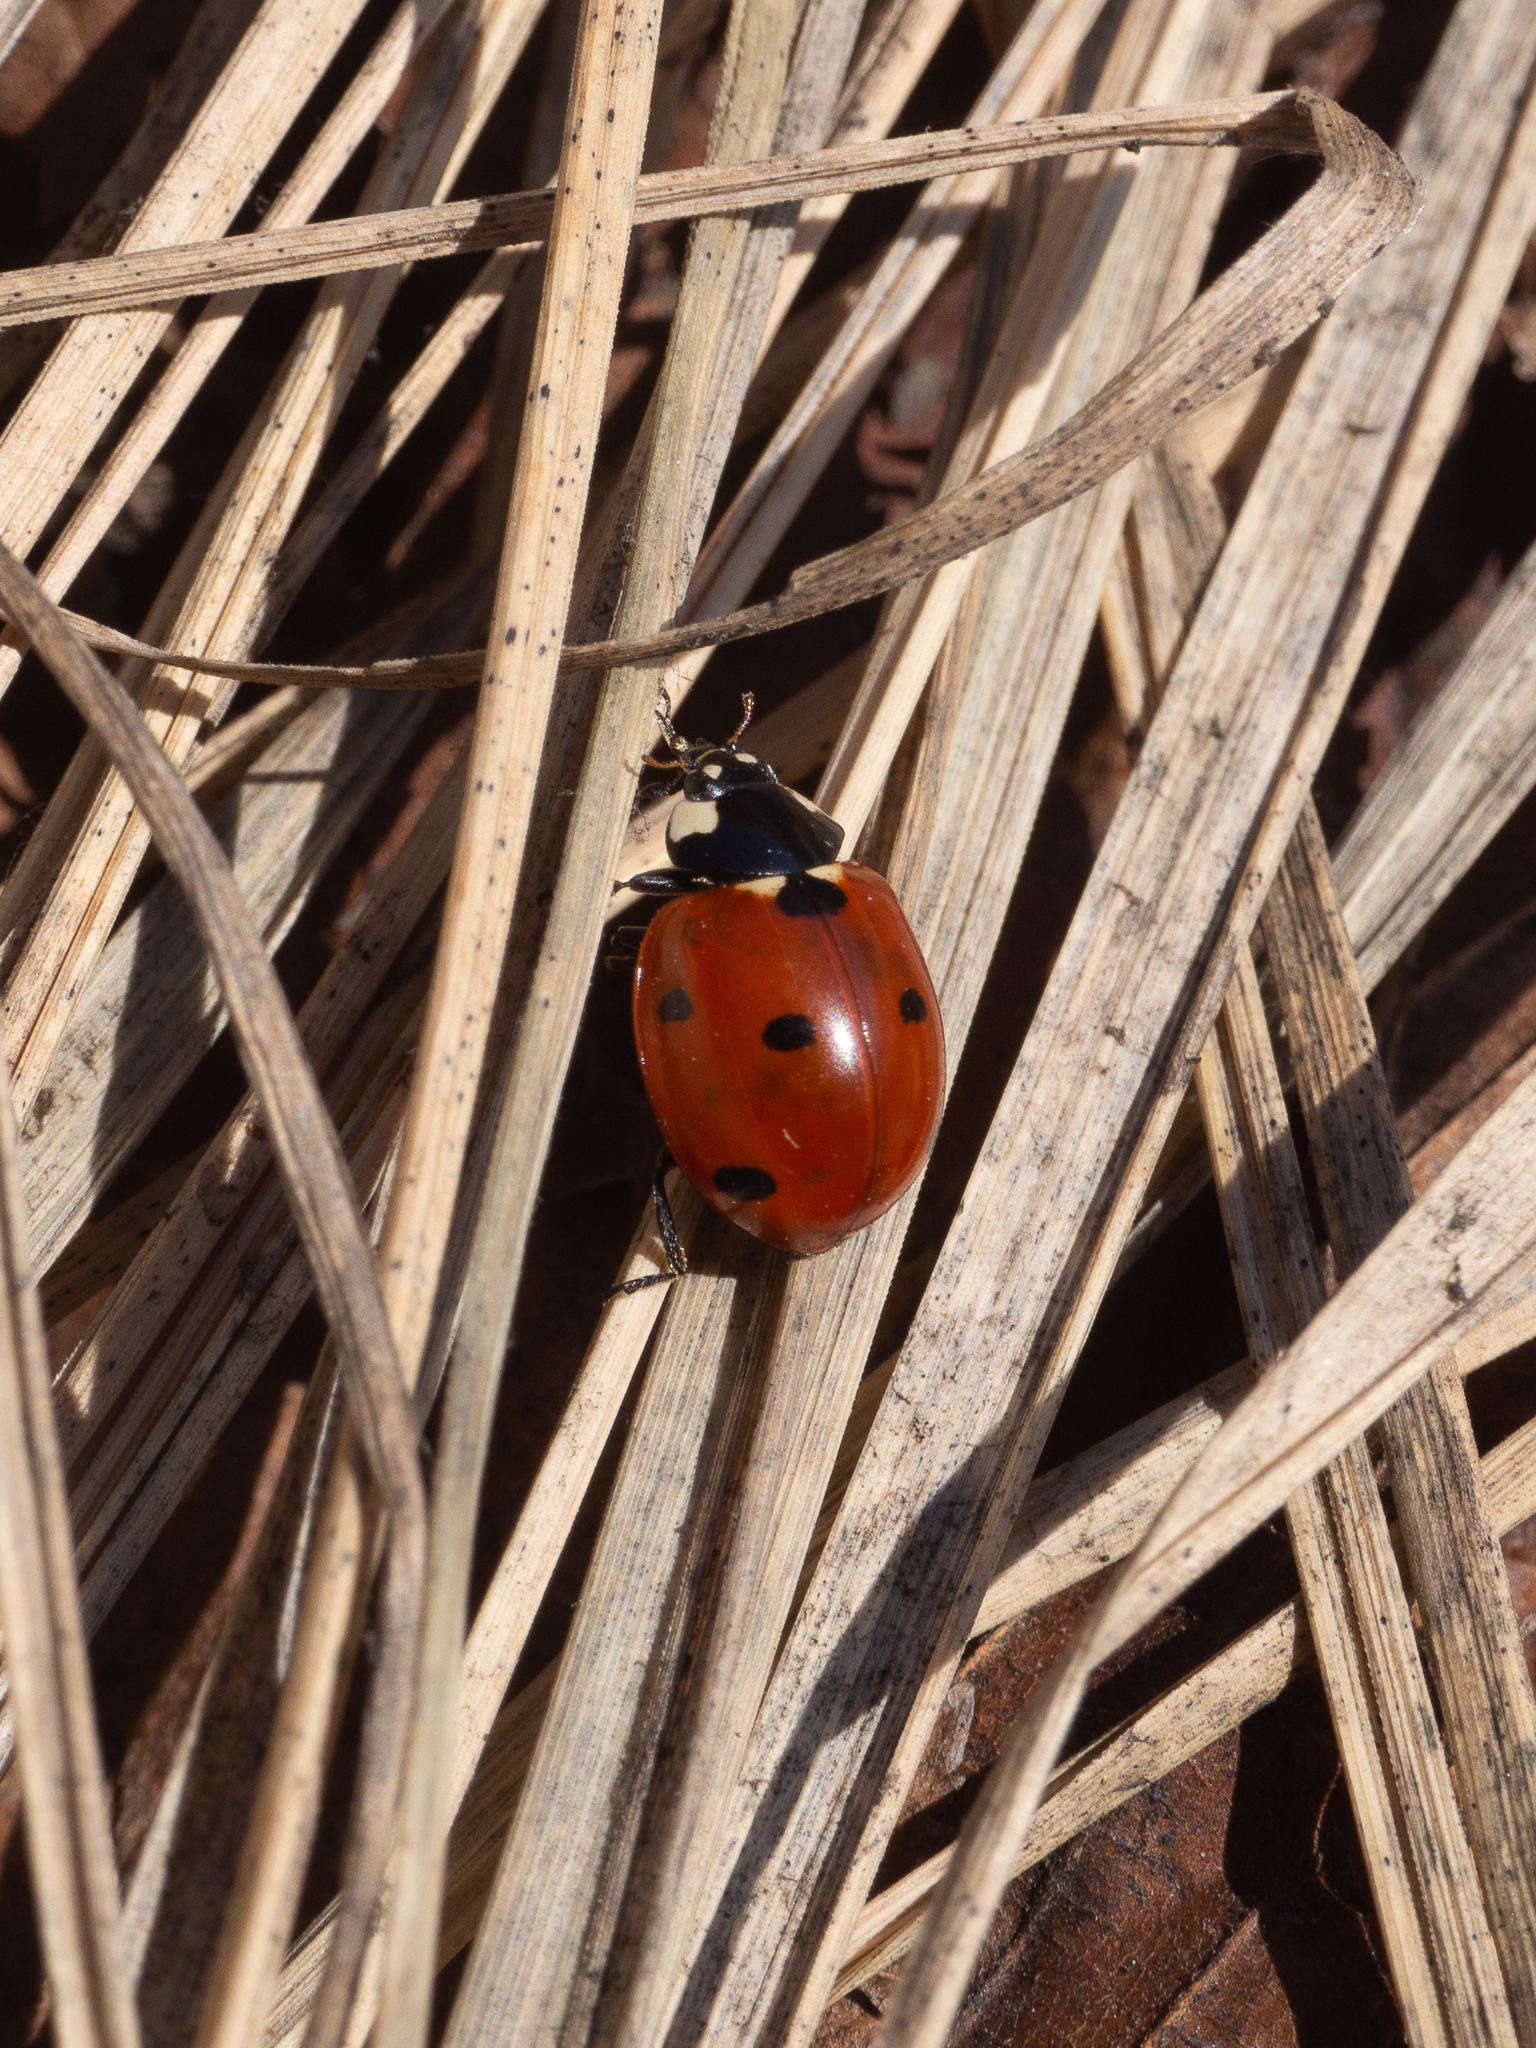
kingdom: Animalia
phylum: Arthropoda
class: Insecta
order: Coleoptera
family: Coccinellidae
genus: Coccinella
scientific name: Coccinella septempunctata
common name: Sevenspotted lady beetle
